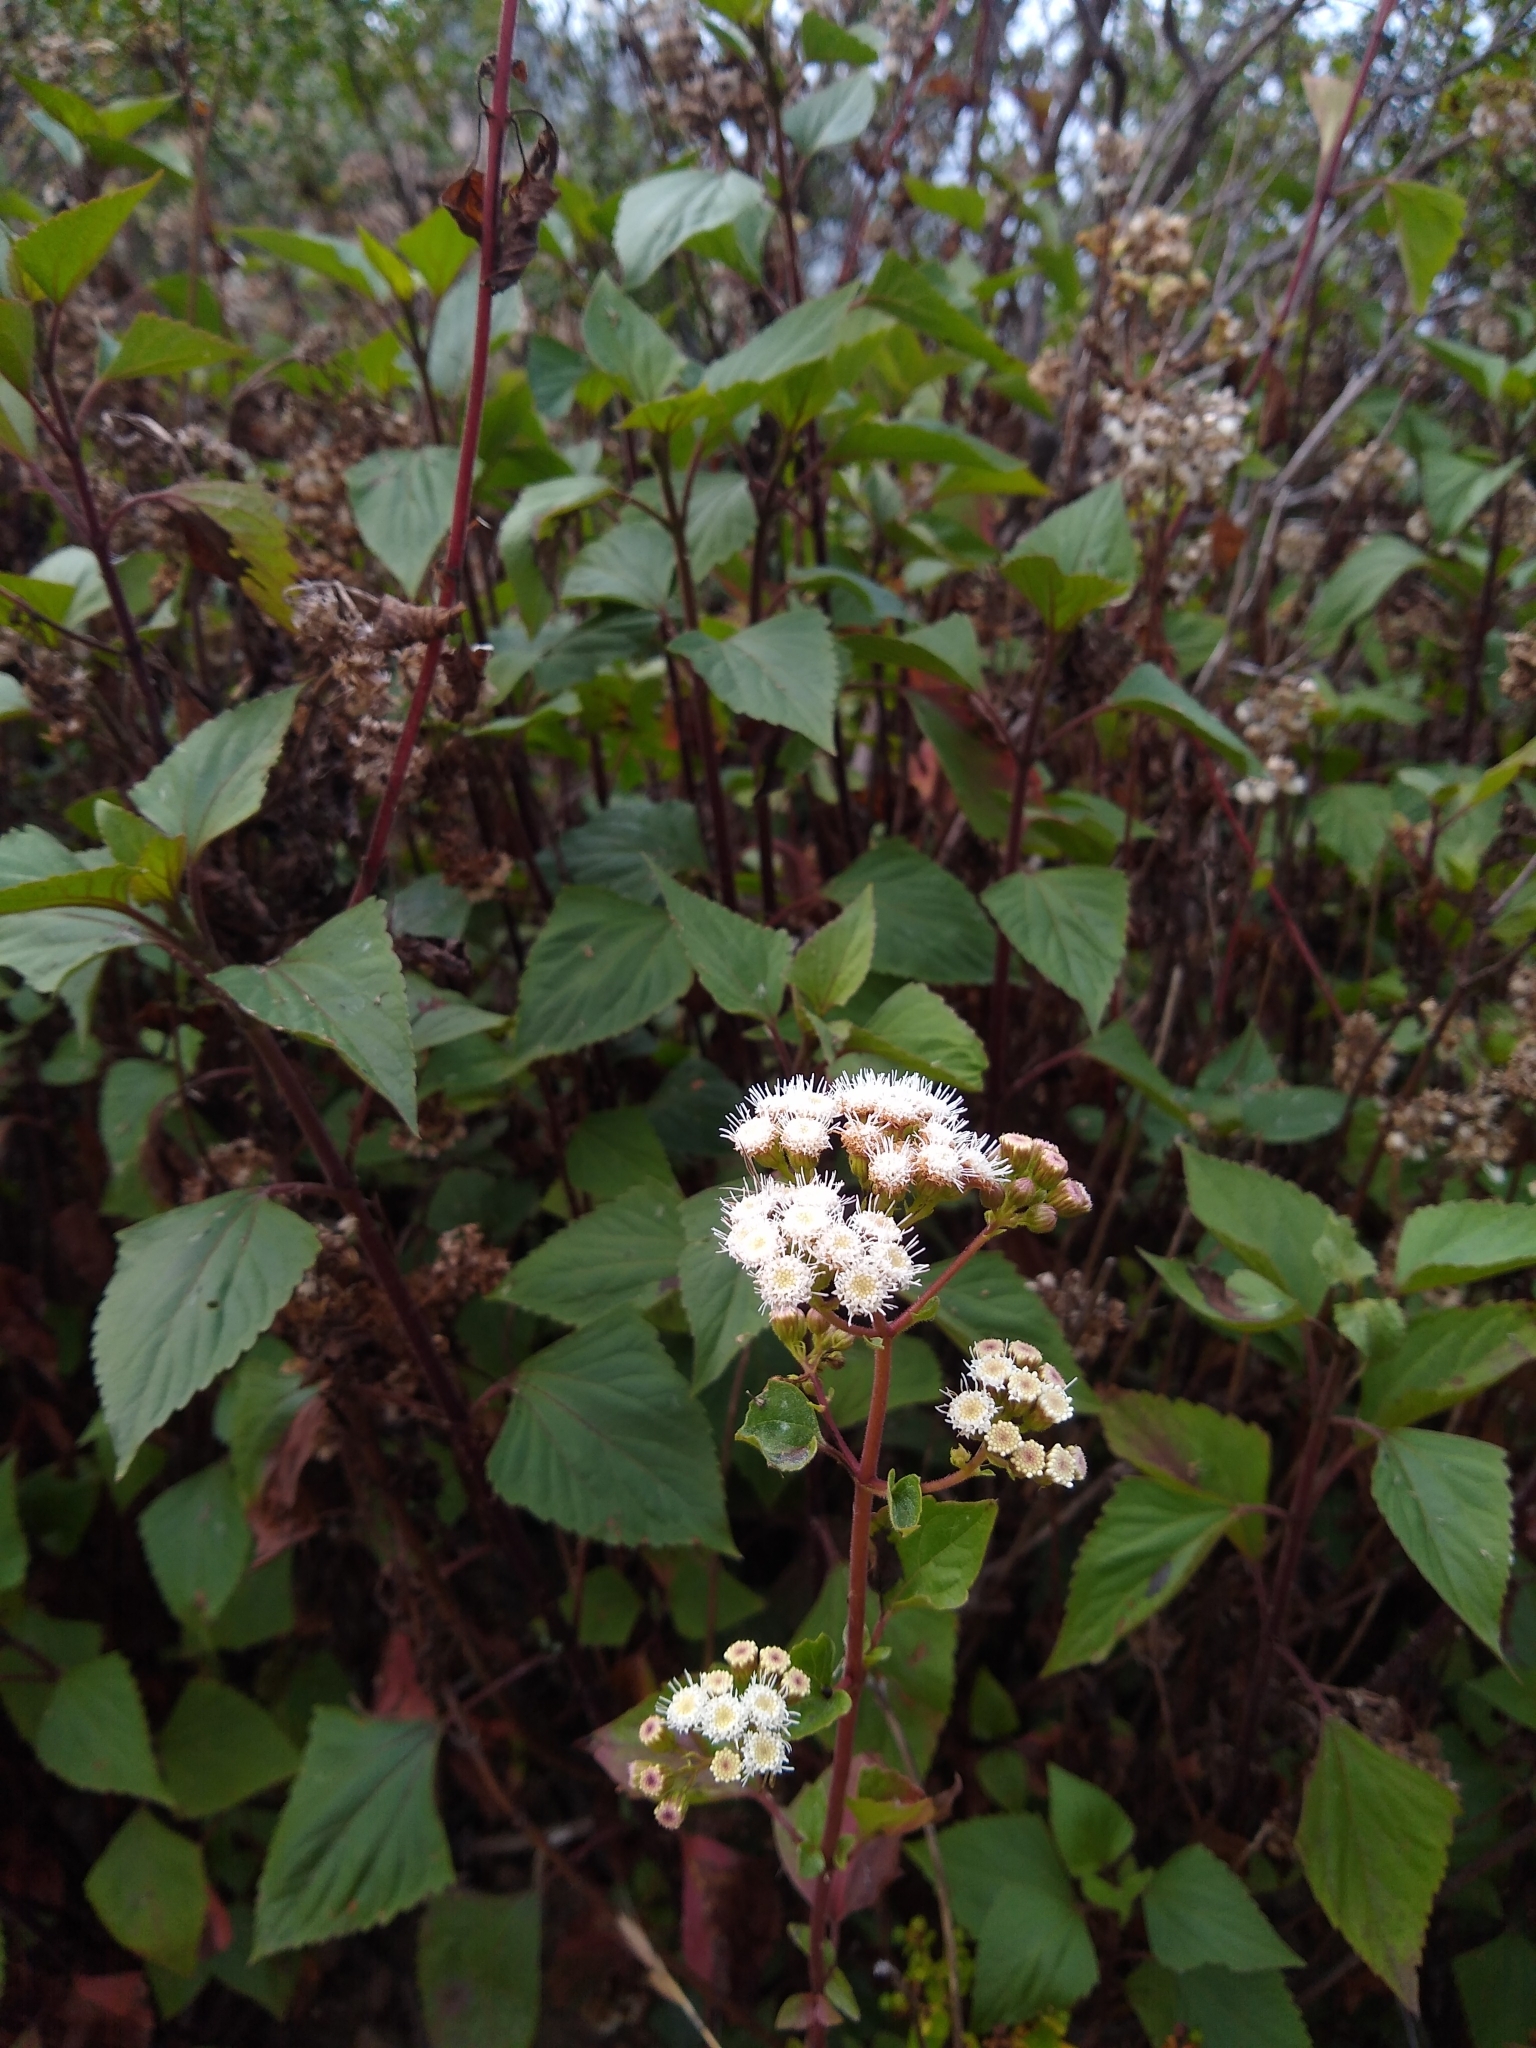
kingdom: Plantae
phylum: Tracheophyta
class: Magnoliopsida
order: Asterales
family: Asteraceae
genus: Ageratina
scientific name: Ageratina adenophora
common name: Sticky snakeroot
